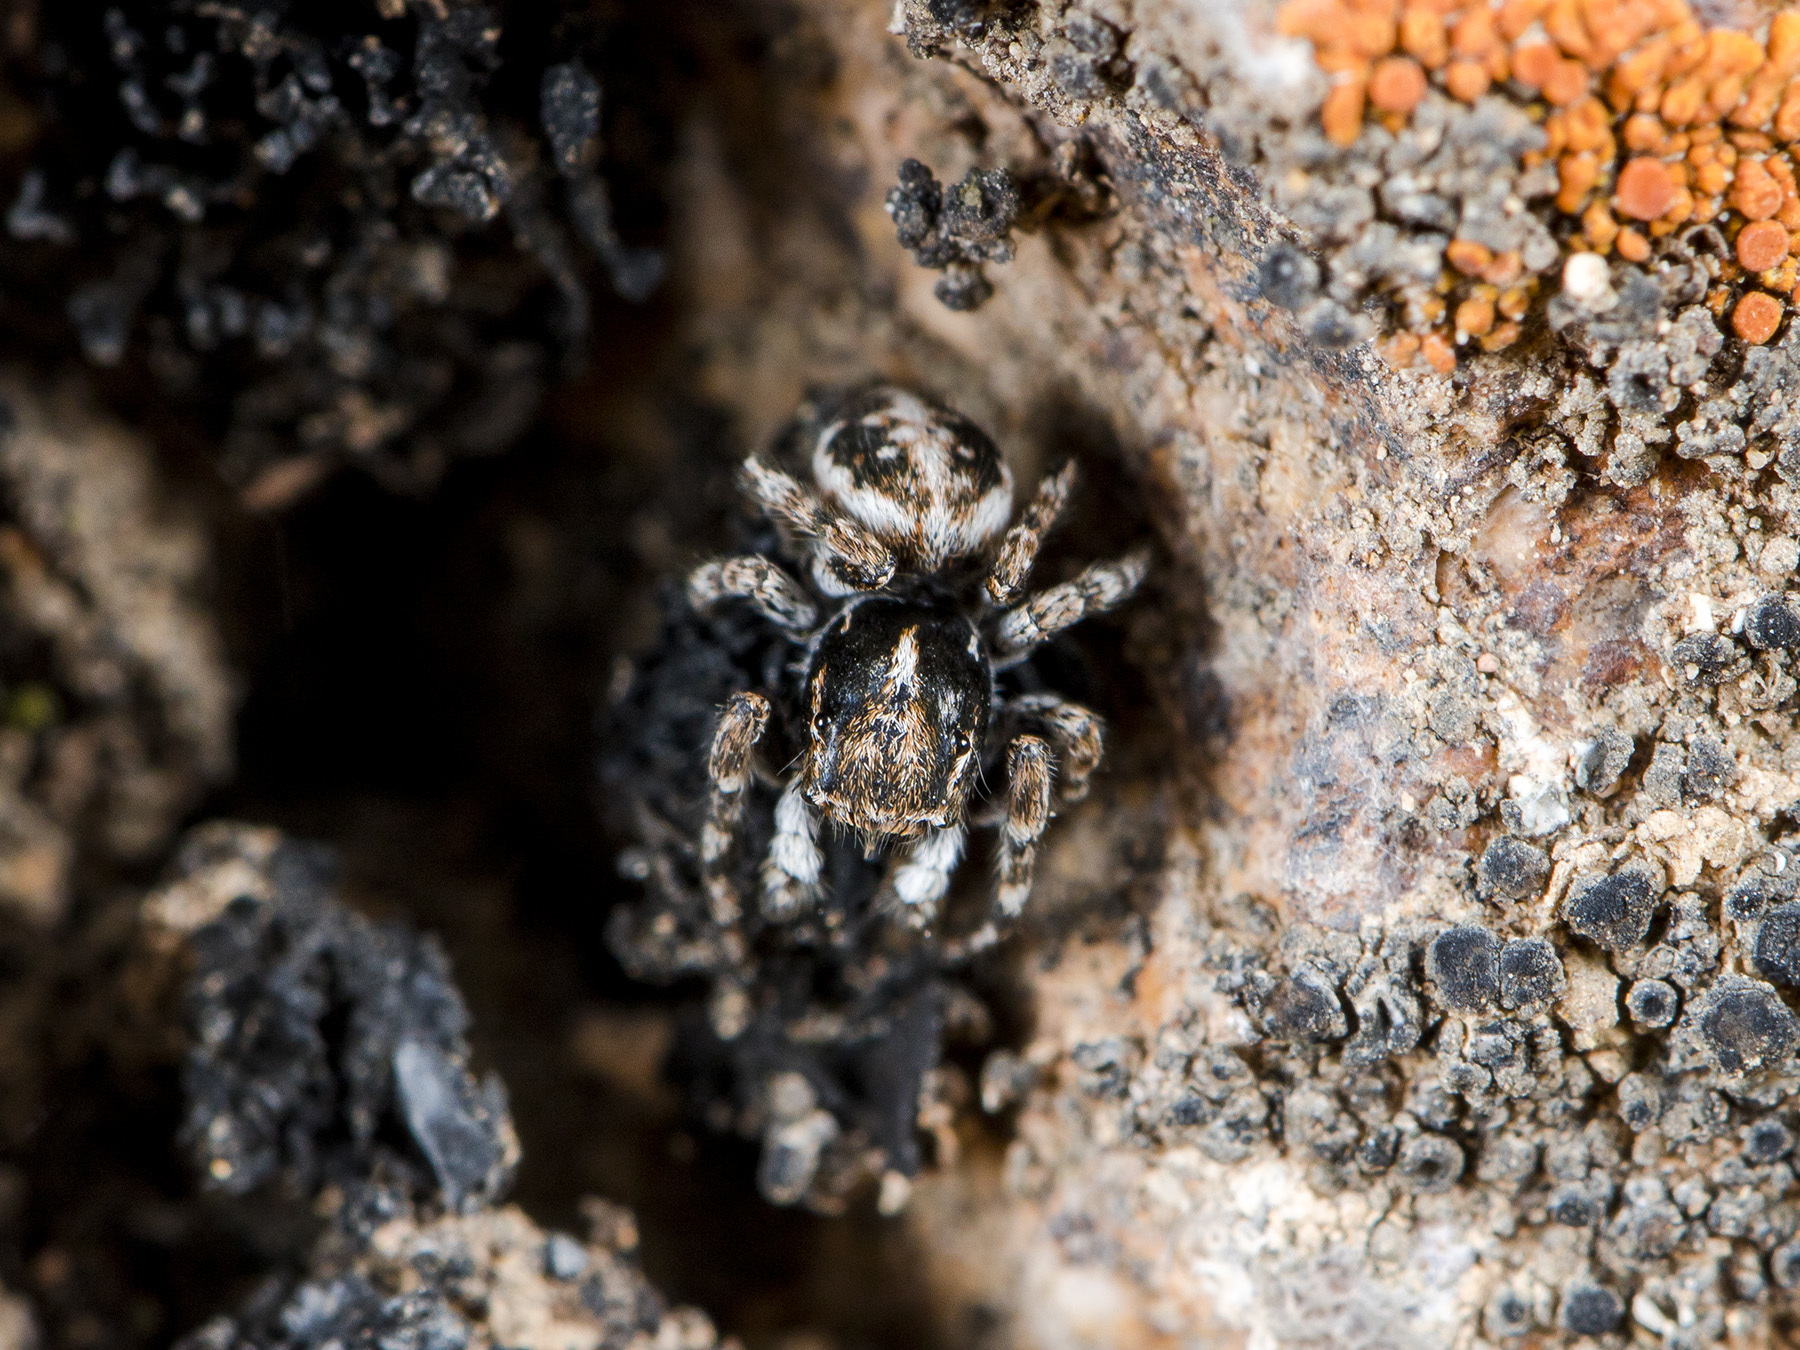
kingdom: Animalia
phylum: Arthropoda
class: Arachnida
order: Araneae
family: Salticidae
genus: Attulus
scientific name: Attulus distinguendus
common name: Distinguished jumper
